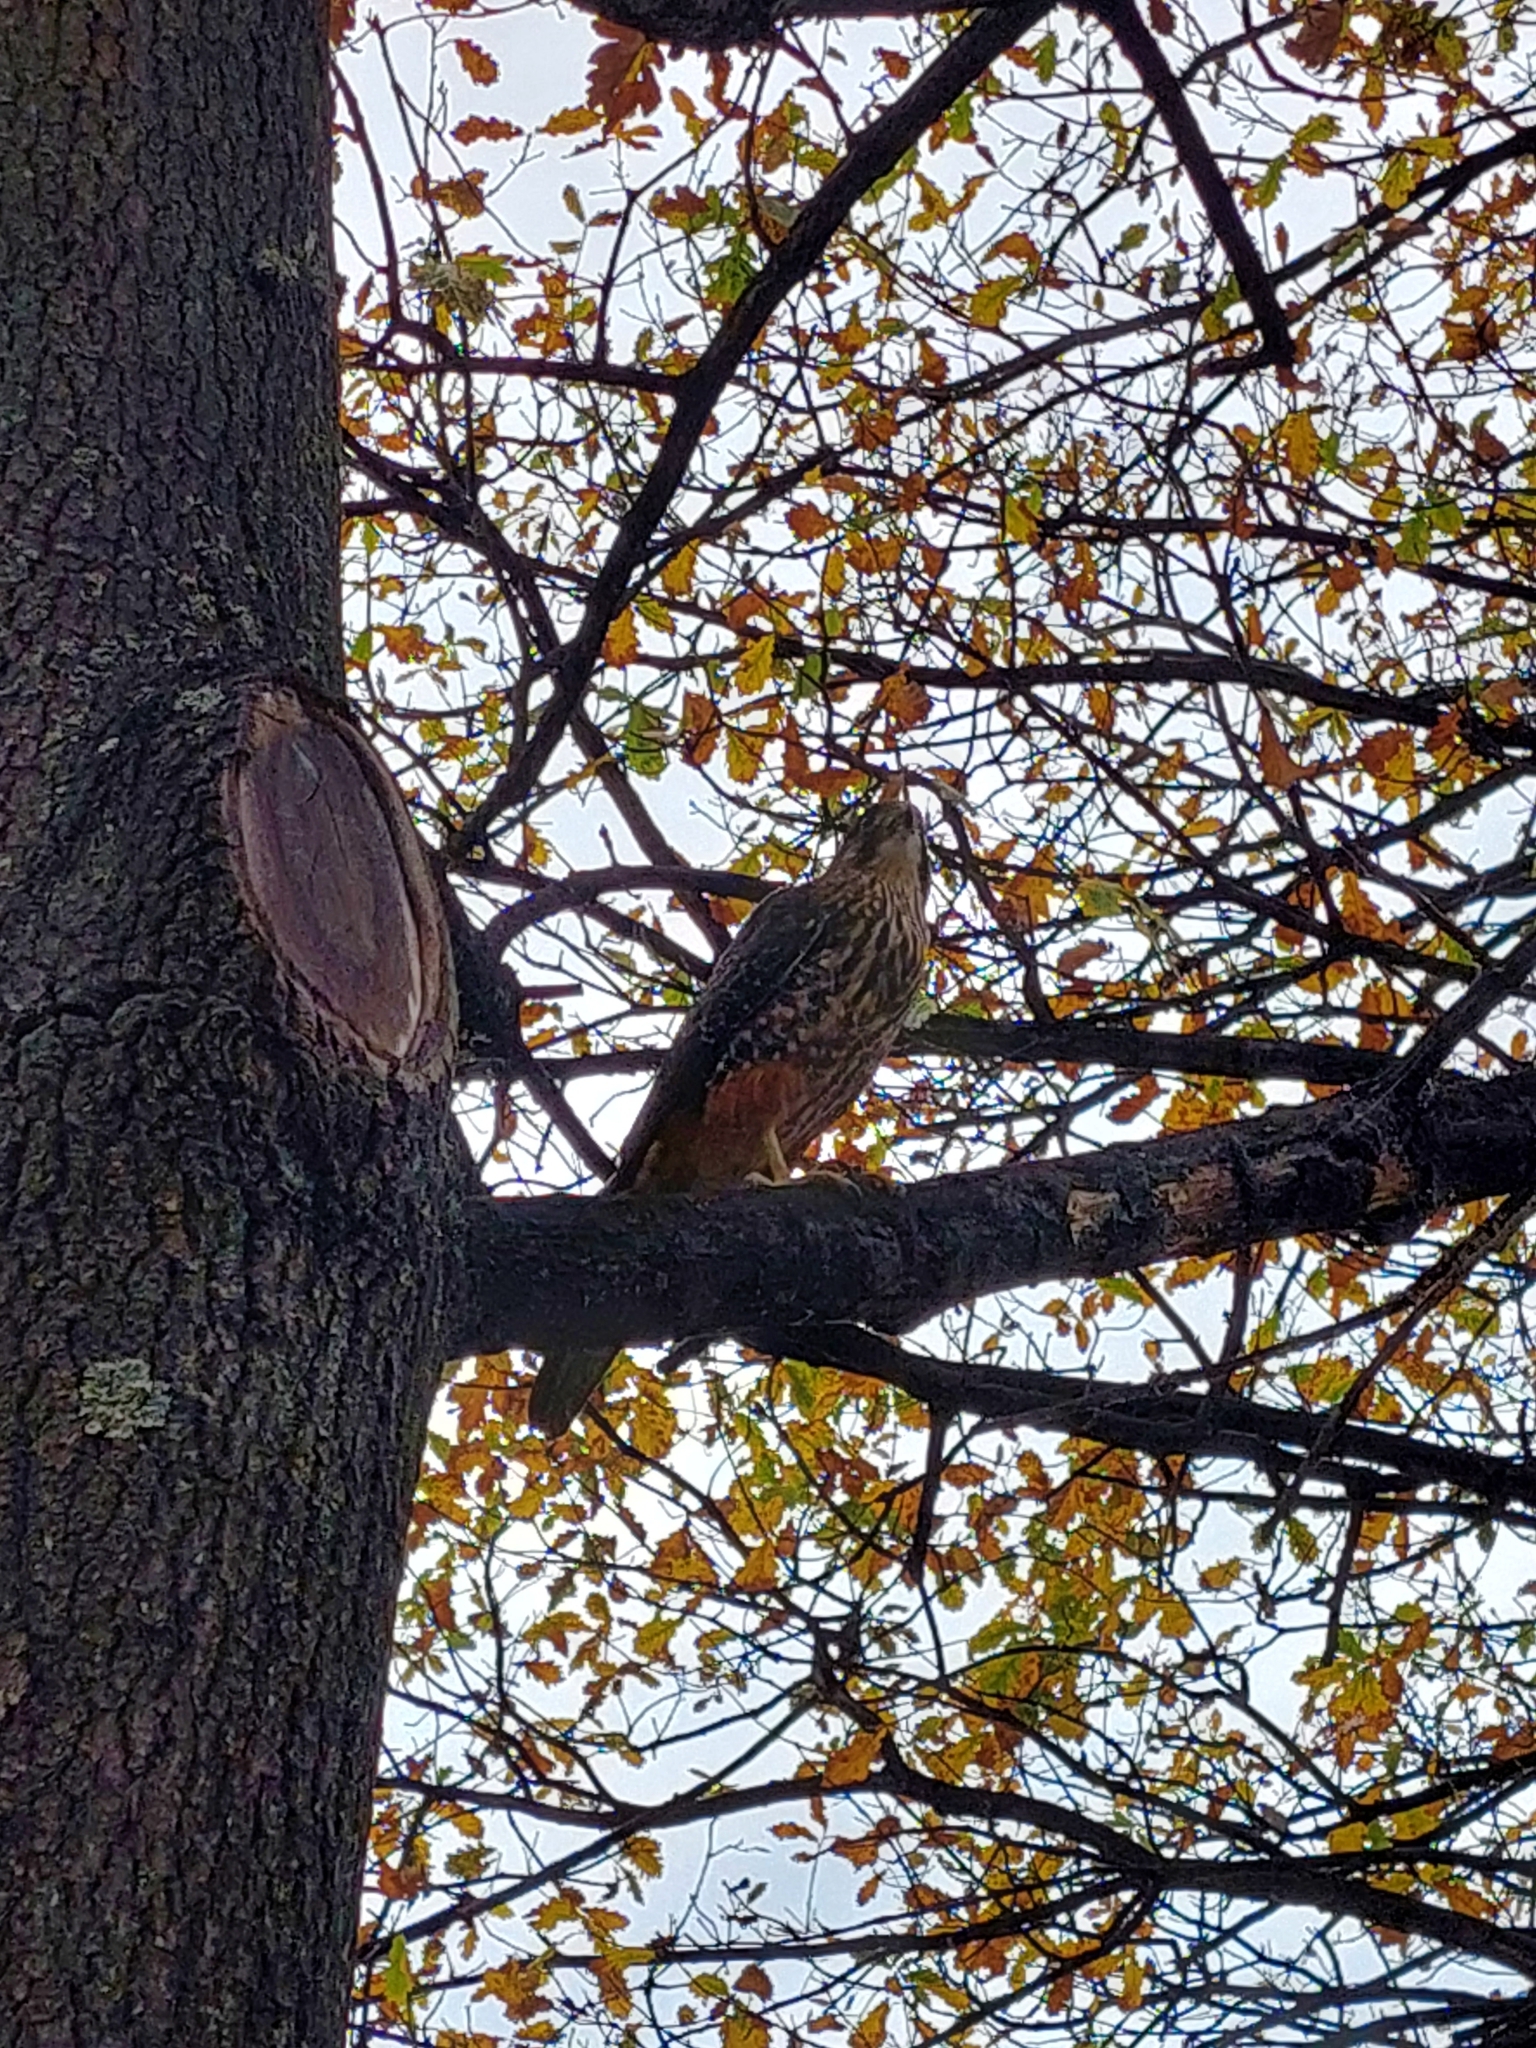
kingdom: Animalia
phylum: Chordata
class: Aves
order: Falconiformes
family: Falconidae
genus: Falco
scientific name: Falco novaeseelandiae
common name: New zealand falcon
